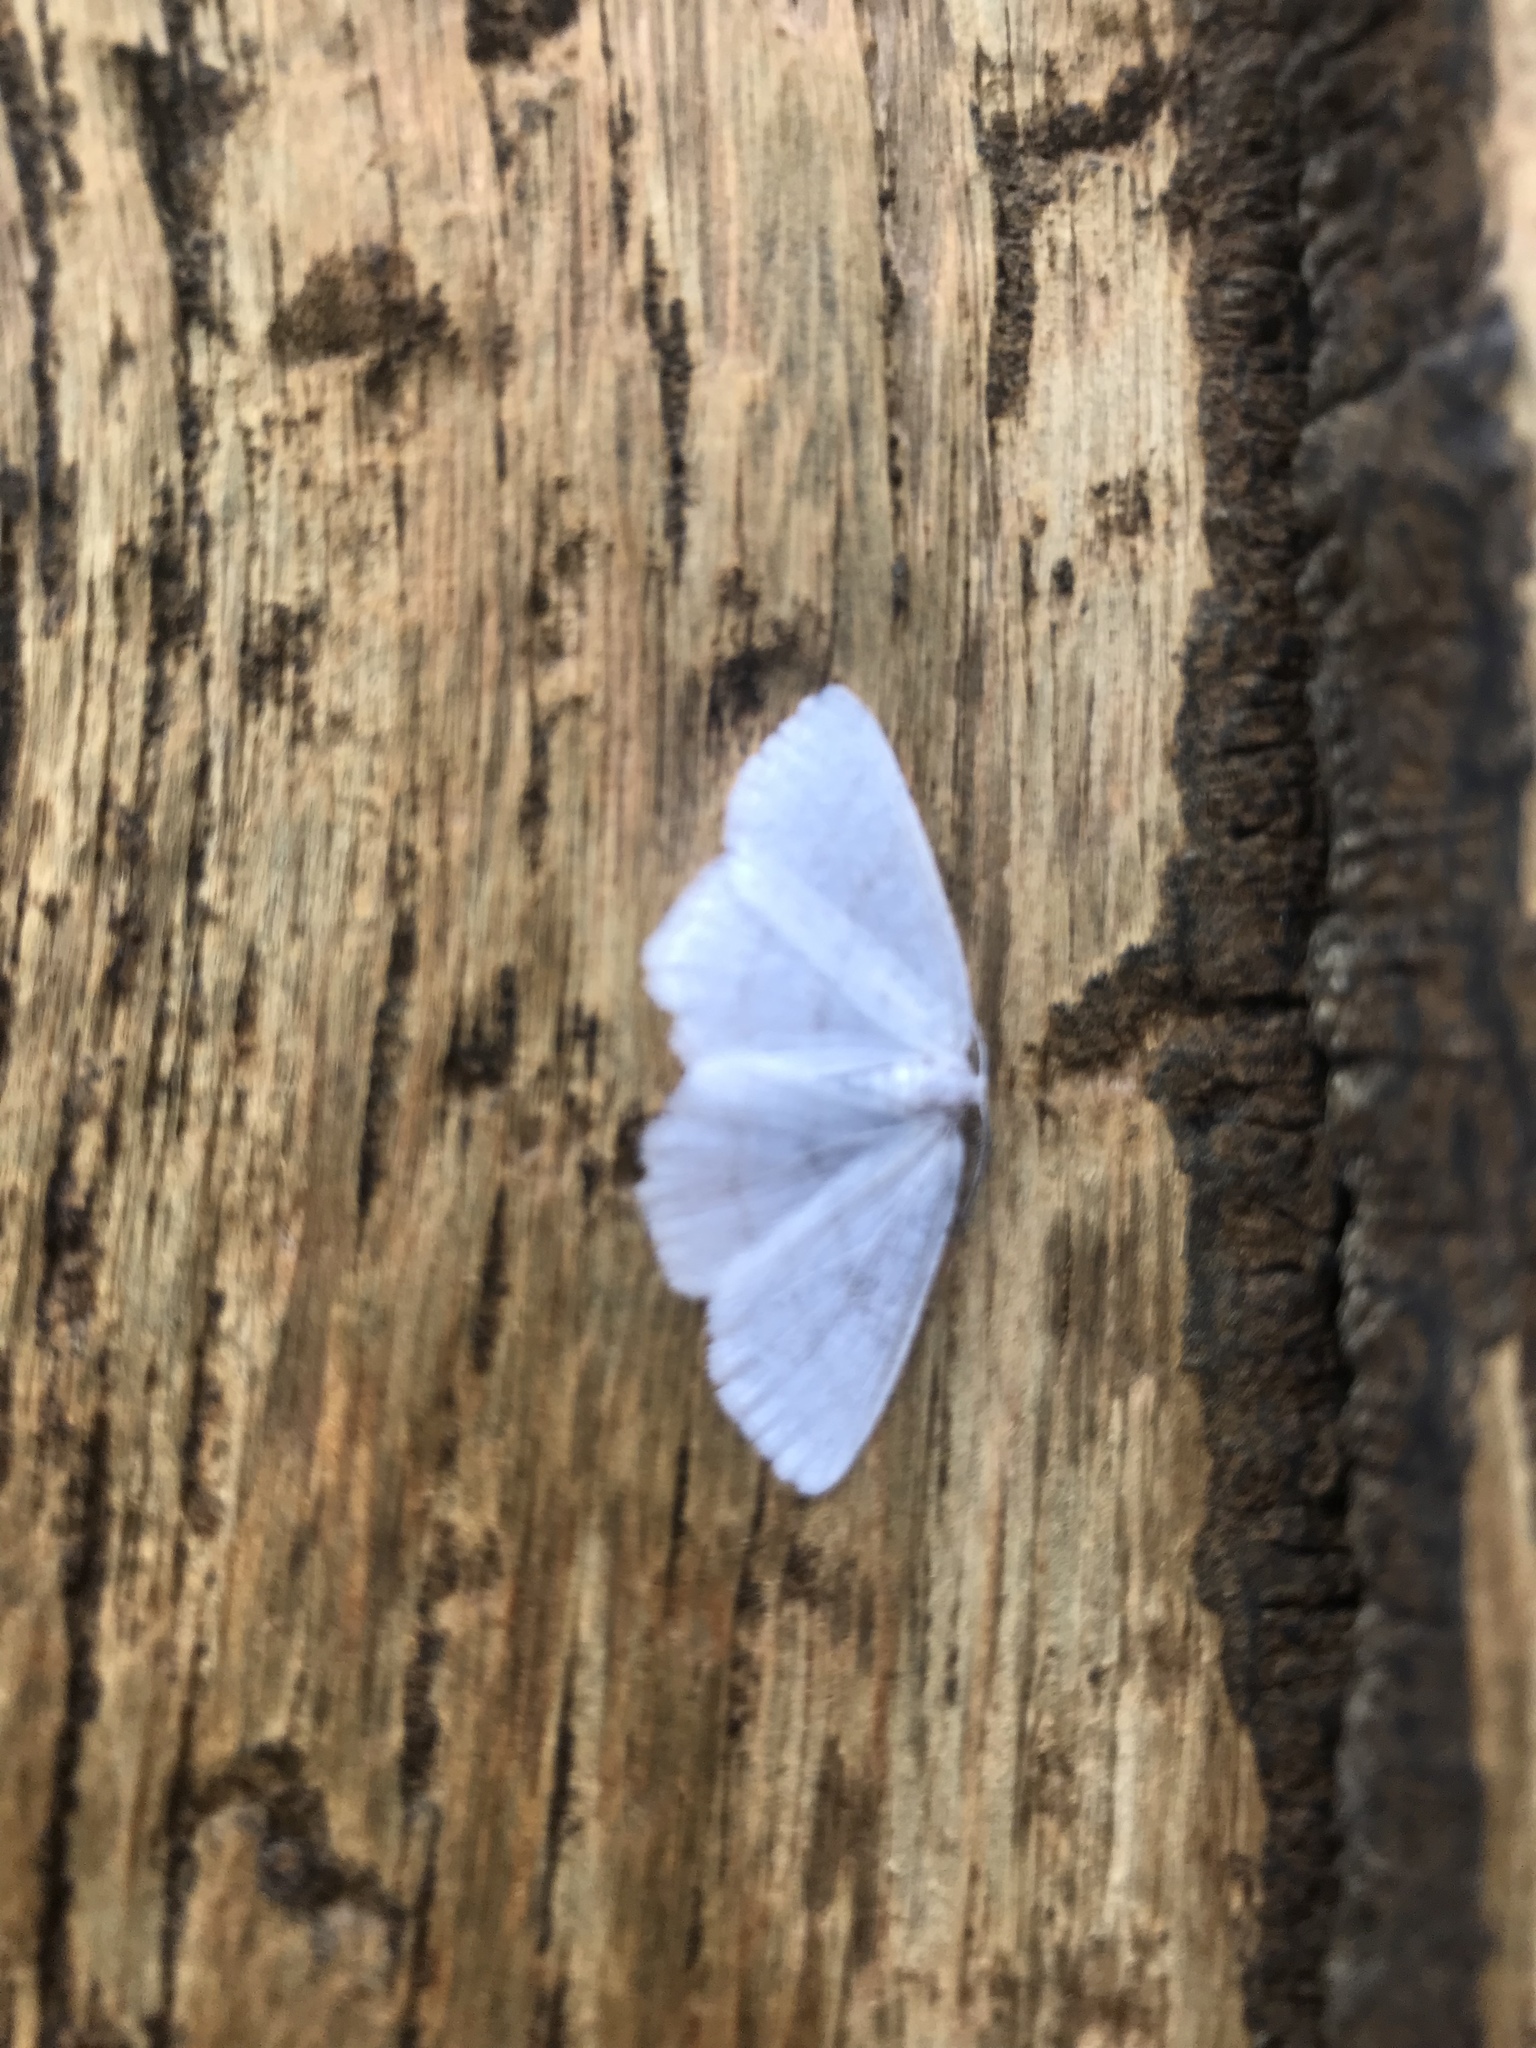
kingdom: Animalia
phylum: Arthropoda
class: Insecta
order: Lepidoptera
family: Geometridae
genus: Cabera
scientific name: Cabera pusaria
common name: Common white wave
